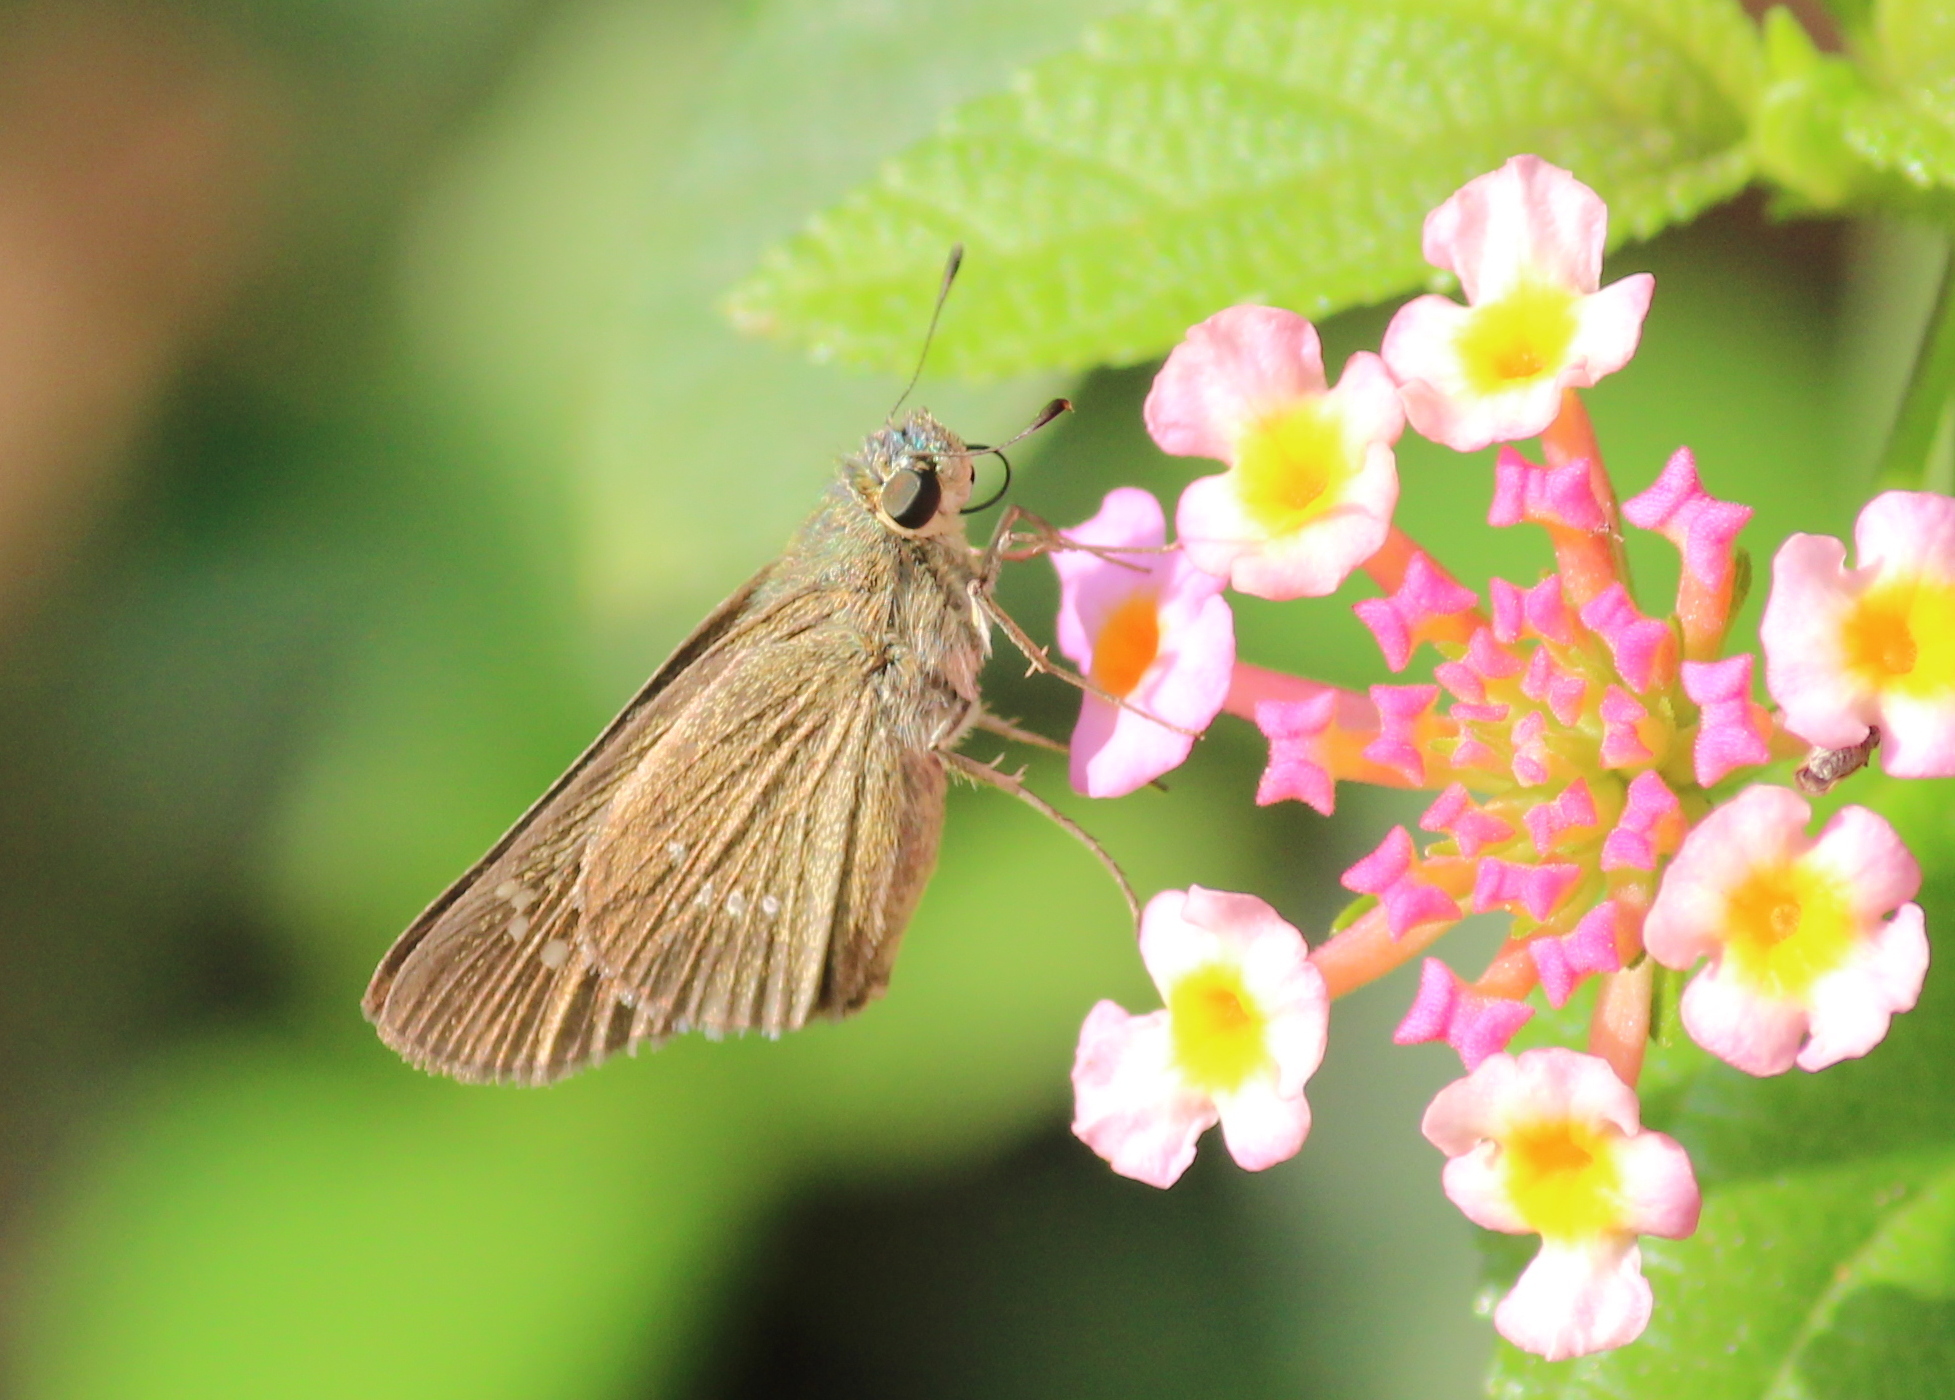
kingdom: Animalia
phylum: Arthropoda
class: Insecta
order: Lepidoptera
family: Hesperiidae
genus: Borbo
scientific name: Borbo cinnara
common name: Formosan swift
